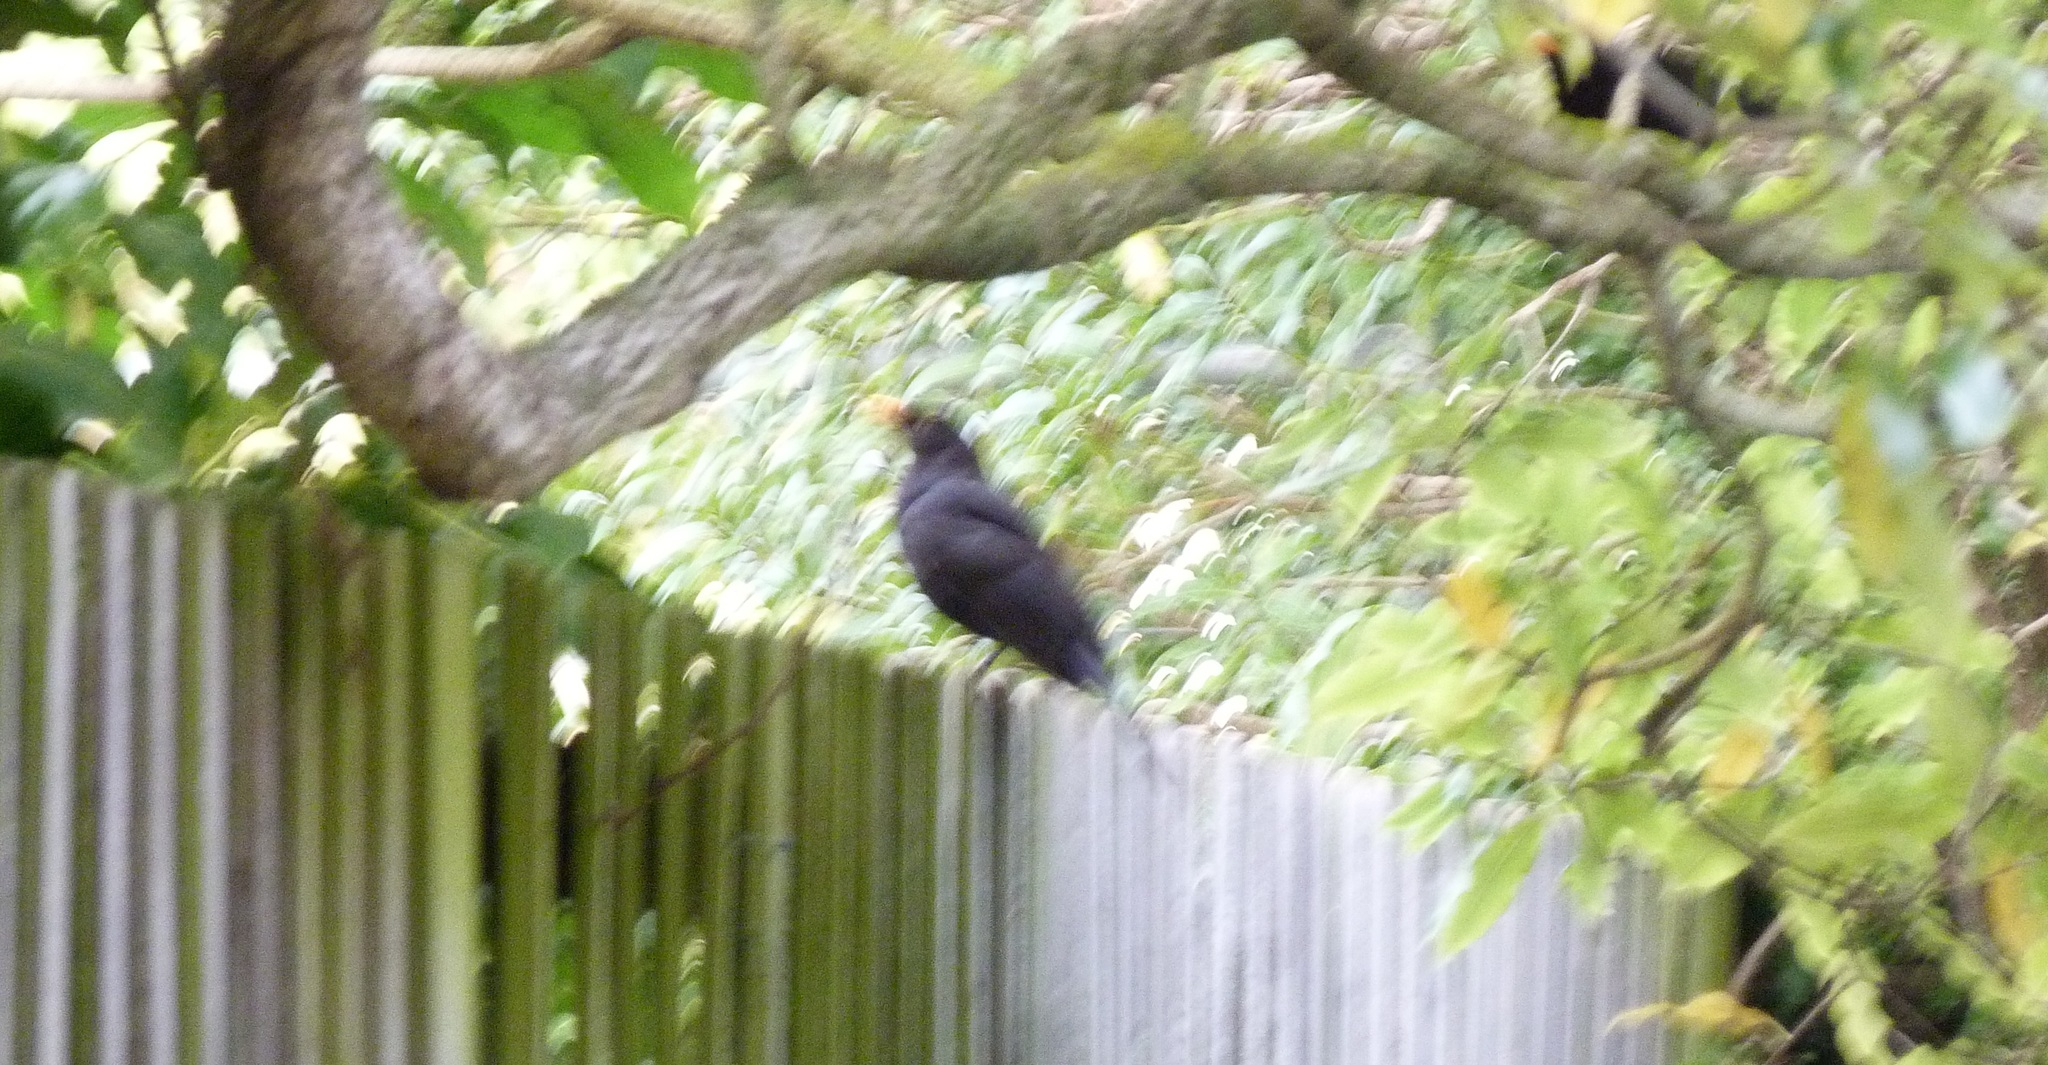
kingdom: Animalia
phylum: Chordata
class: Aves
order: Passeriformes
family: Turdidae
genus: Turdus
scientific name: Turdus merula
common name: Common blackbird
